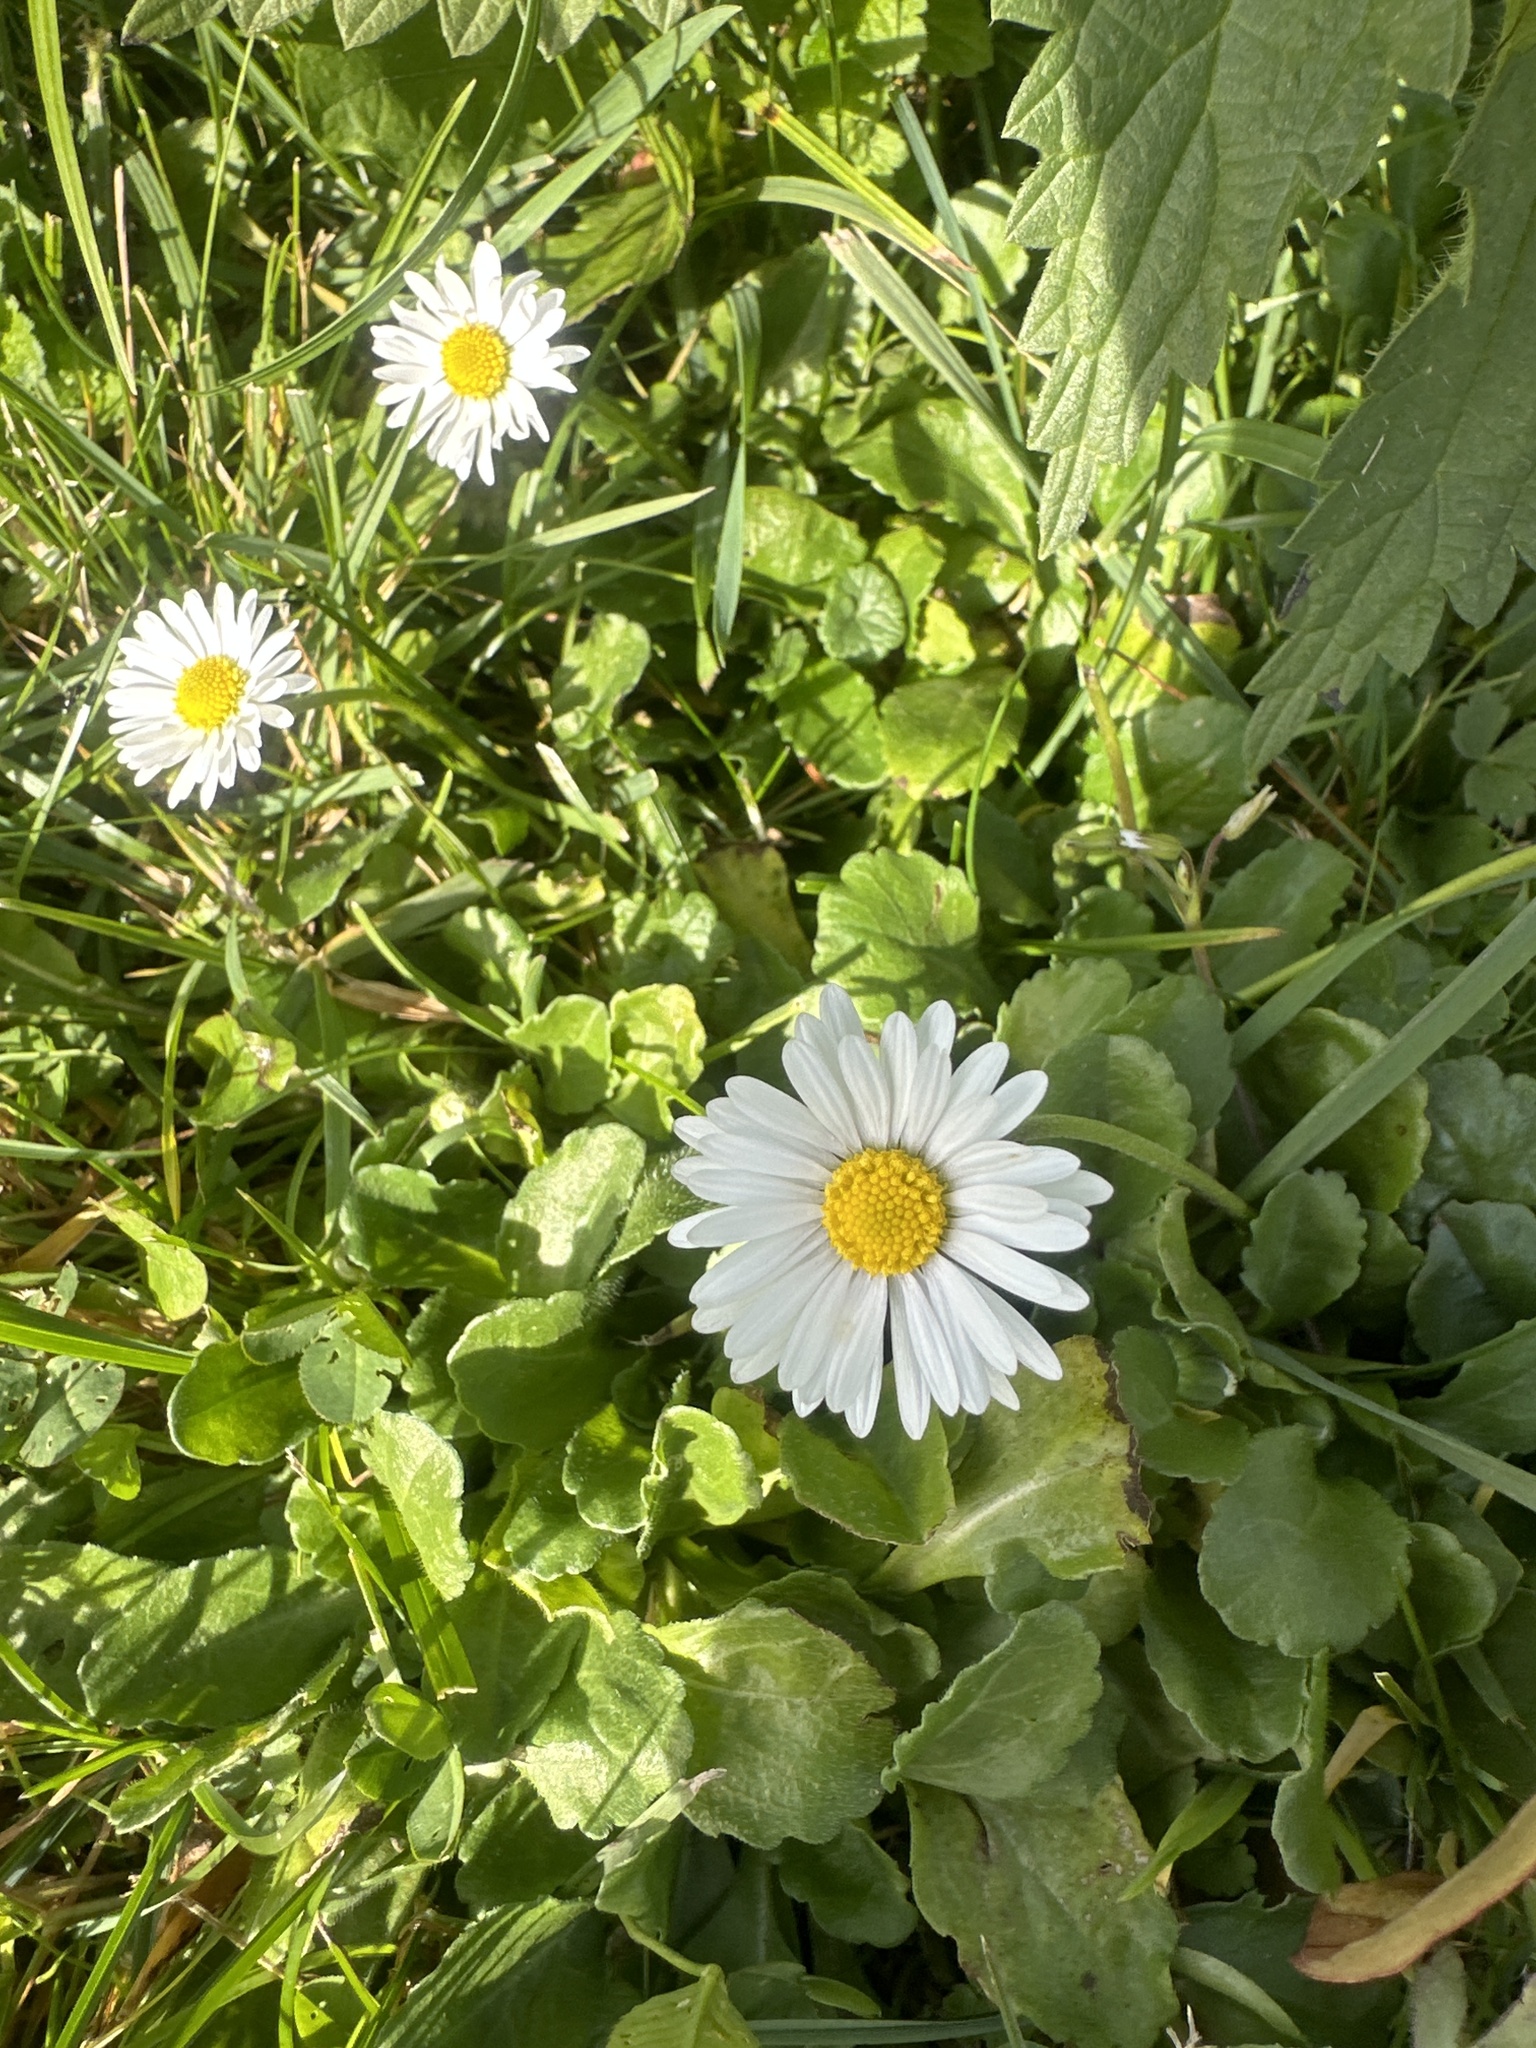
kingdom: Plantae
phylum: Tracheophyta
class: Magnoliopsida
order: Asterales
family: Asteraceae
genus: Bellis
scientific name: Bellis perennis
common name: Lawndaisy
